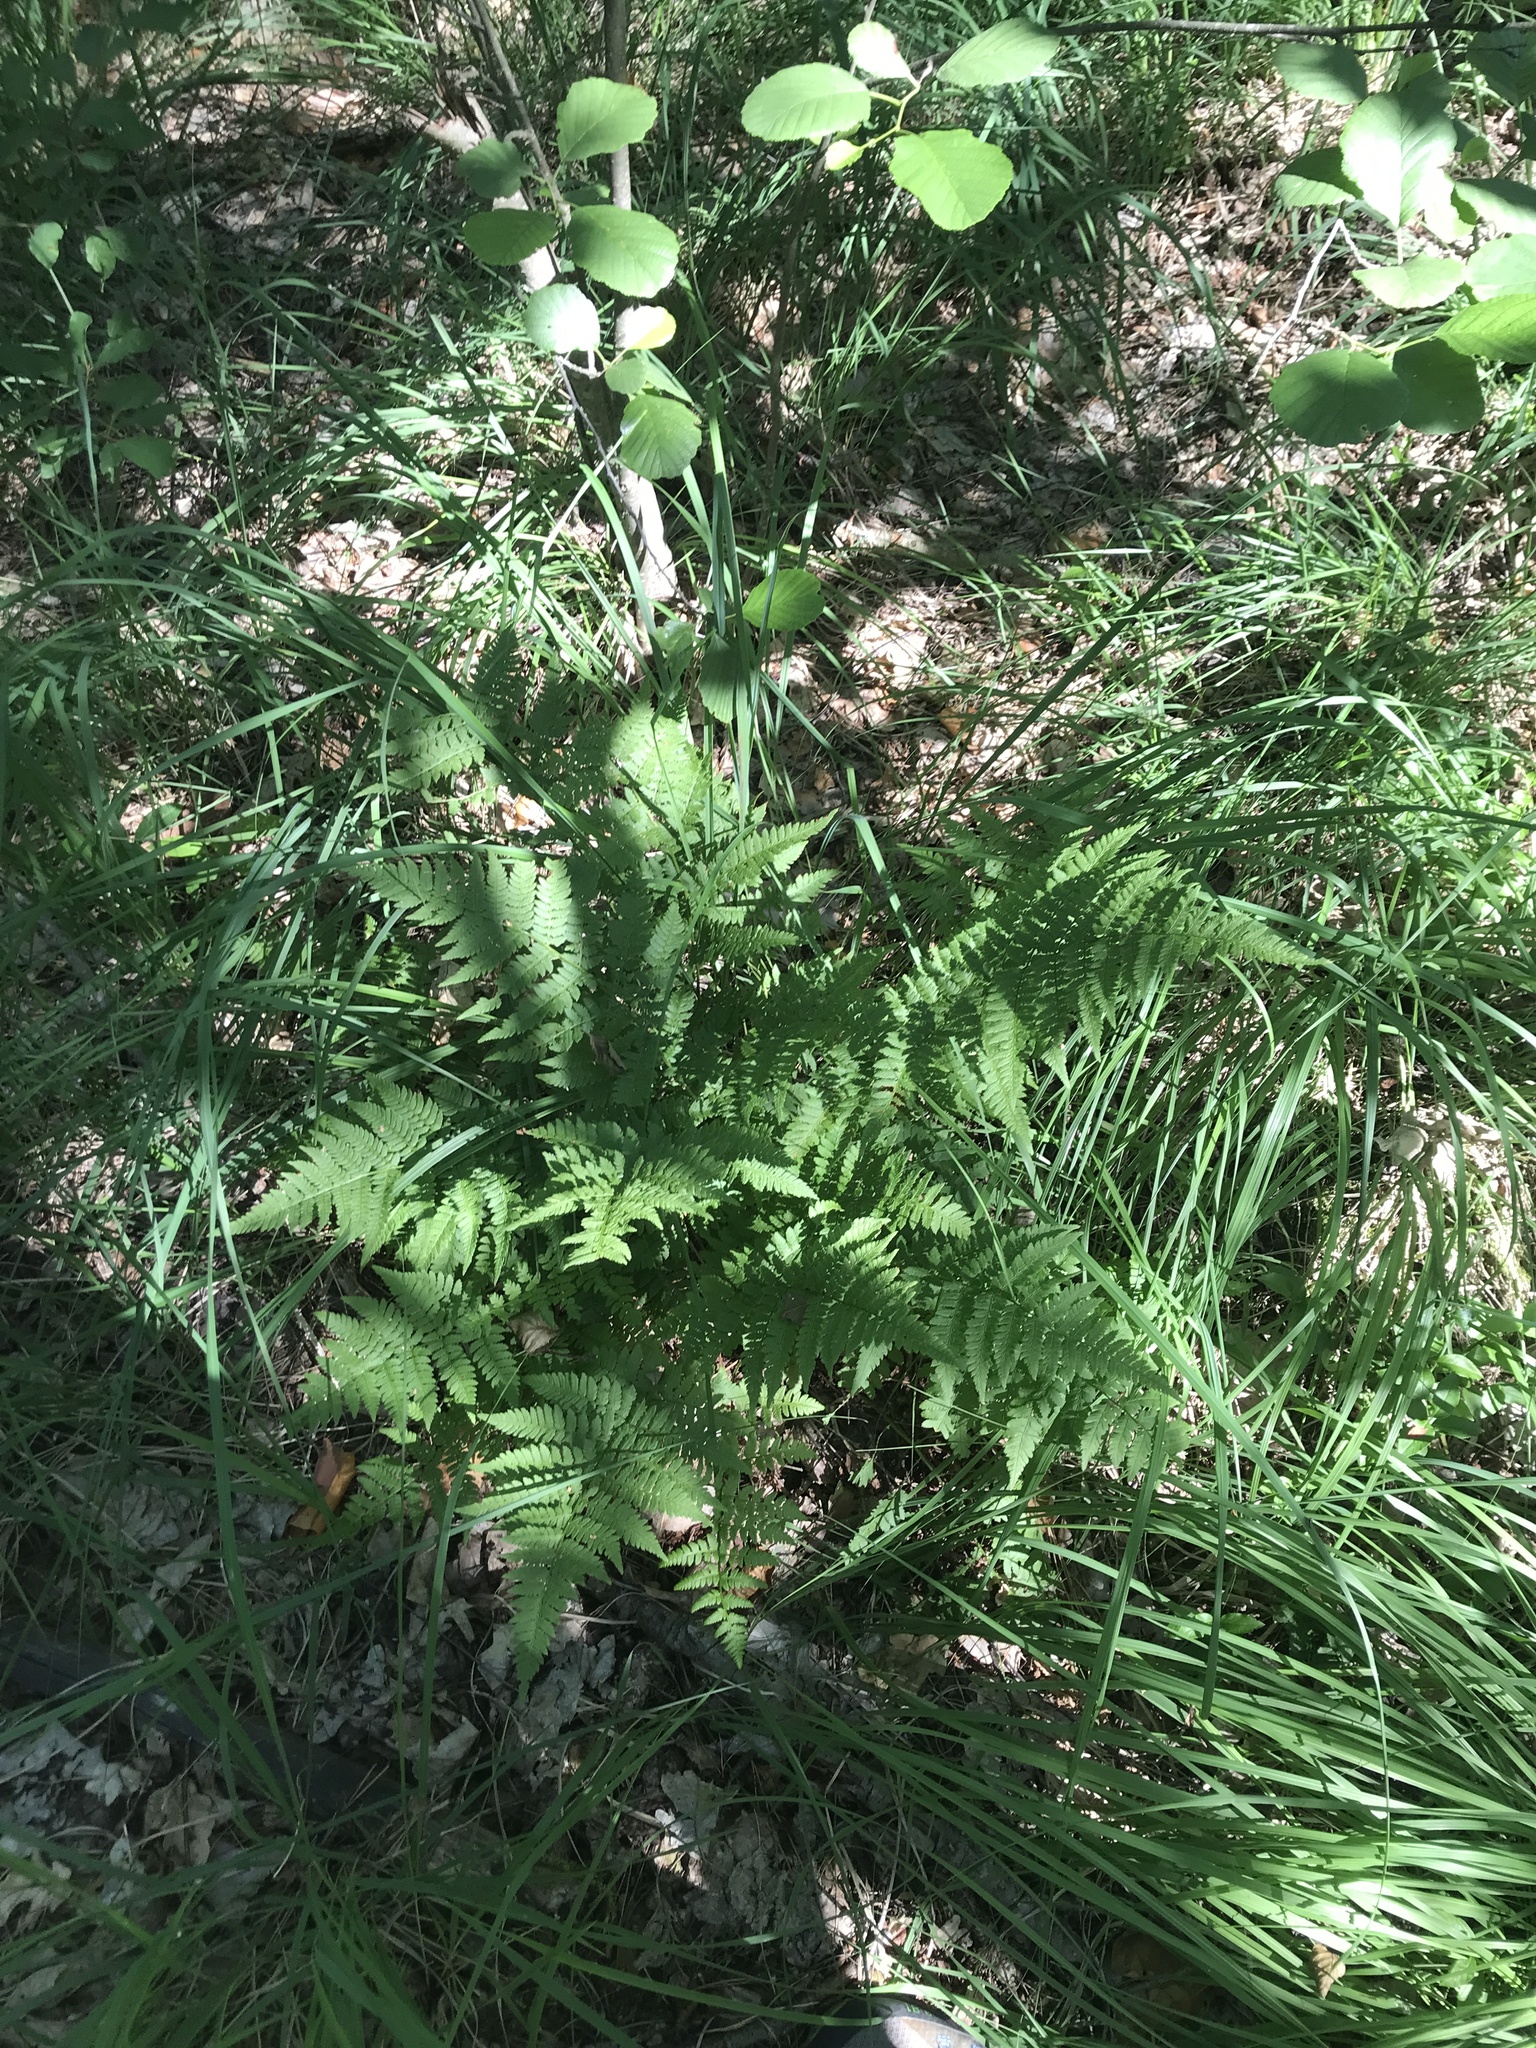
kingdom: Plantae
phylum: Tracheophyta
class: Polypodiopsida
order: Polypodiales
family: Dryopteridaceae
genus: Dryopteris
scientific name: Dryopteris carthusiana
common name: Narrow buckler-fern
